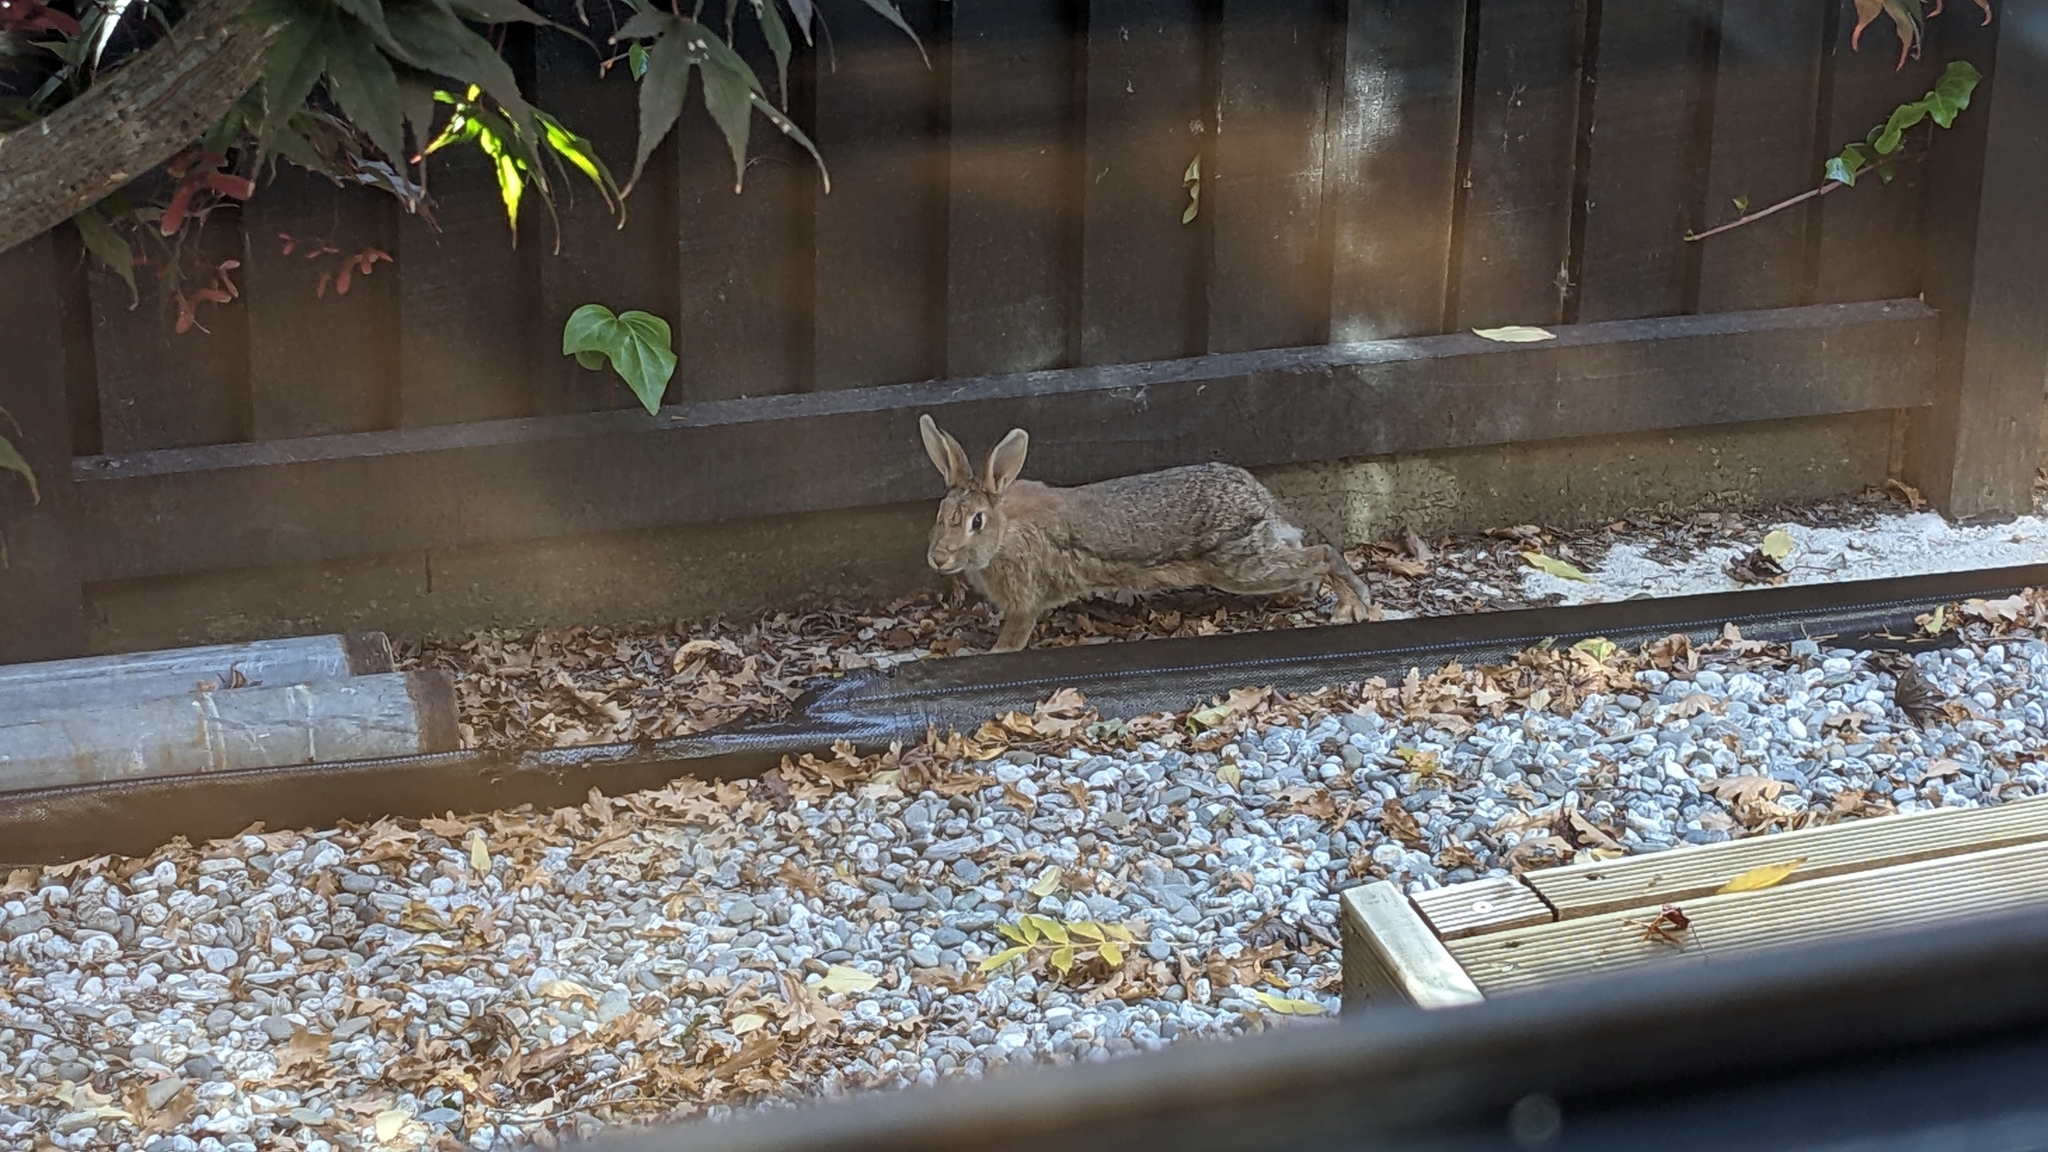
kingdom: Animalia
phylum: Chordata
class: Mammalia
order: Lagomorpha
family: Leporidae
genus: Oryctolagus
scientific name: Oryctolagus cuniculus
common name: European rabbit
